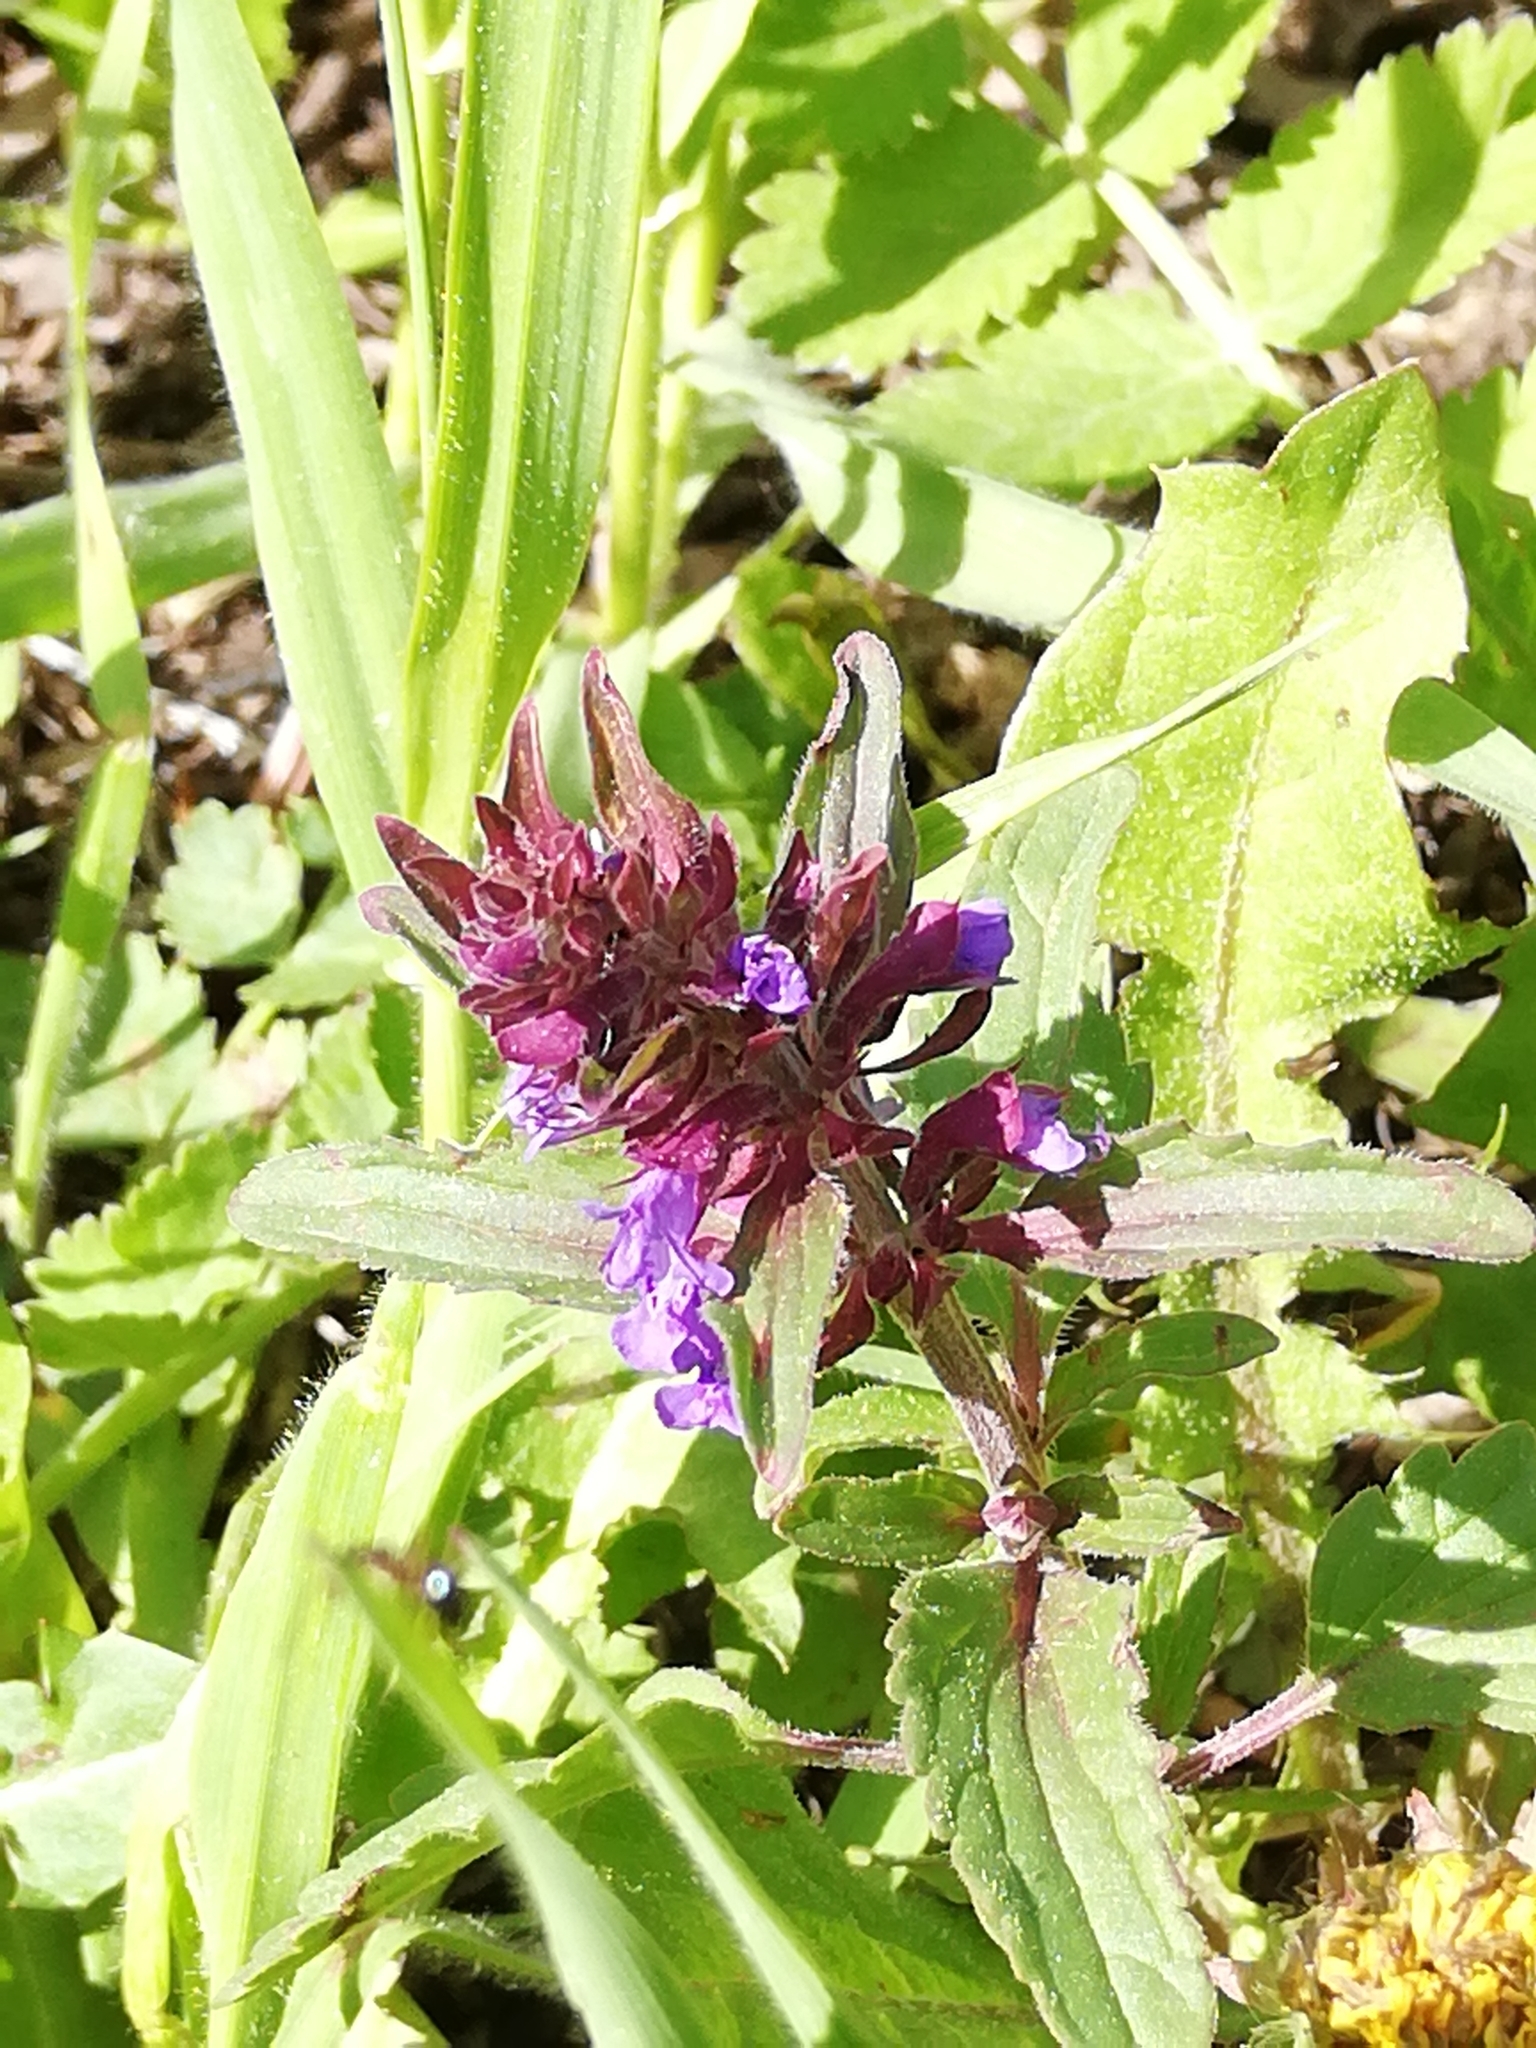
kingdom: Plantae
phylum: Tracheophyta
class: Magnoliopsida
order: Lamiales
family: Lamiaceae
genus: Dracocephalum
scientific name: Dracocephalum nutans
